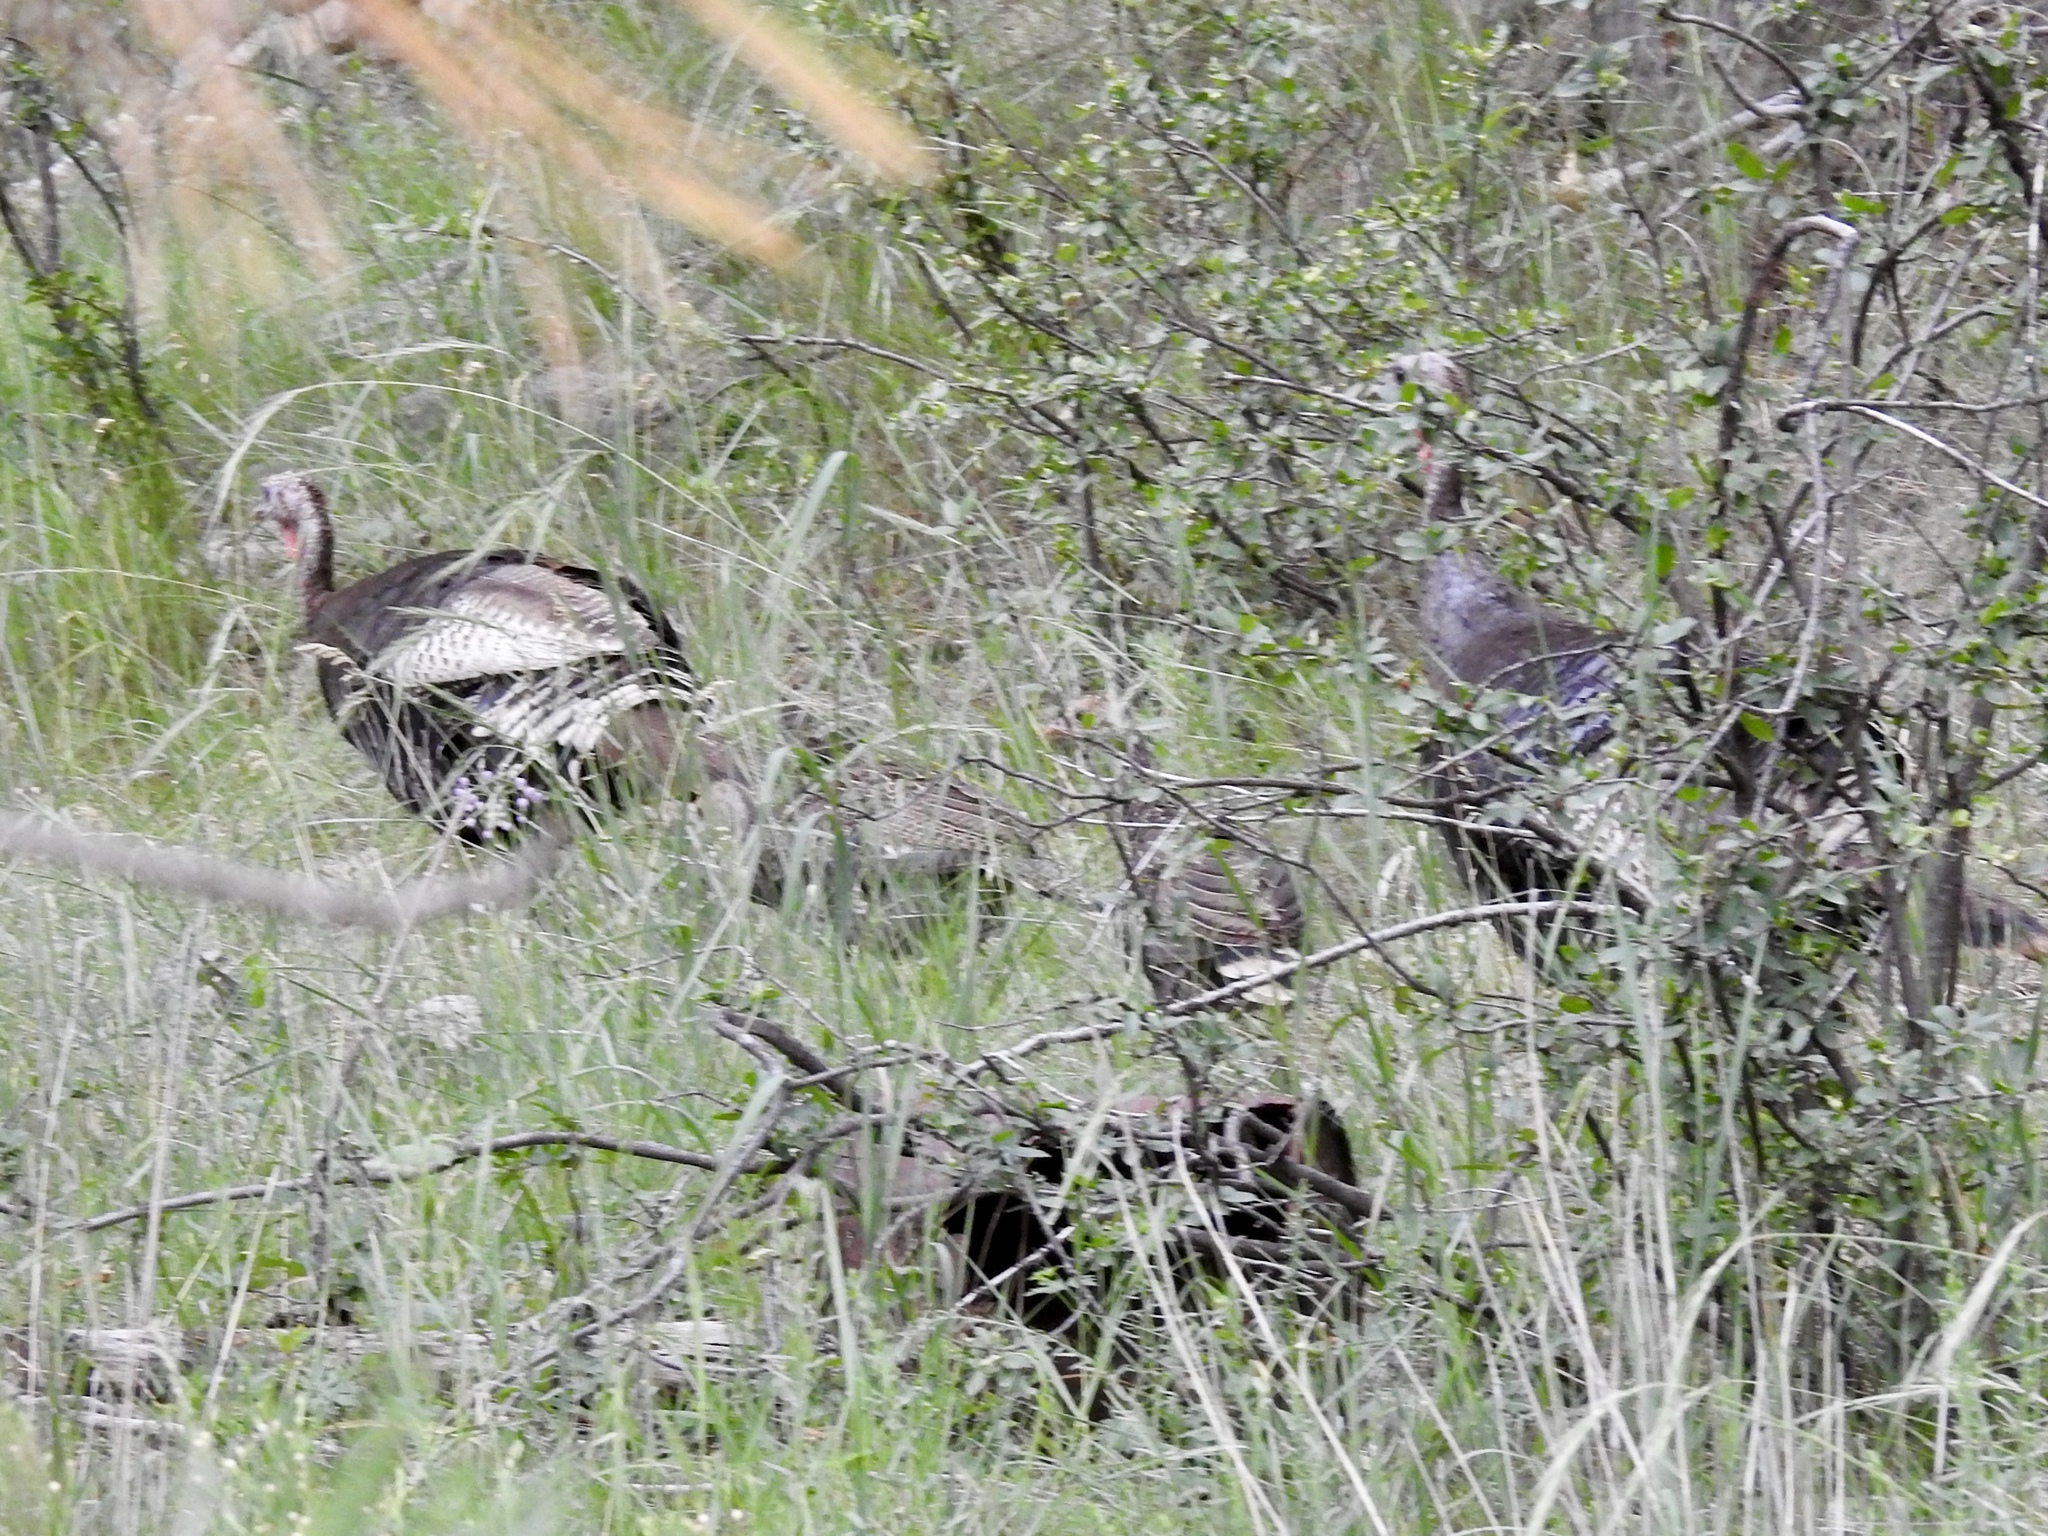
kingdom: Animalia
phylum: Chordata
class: Aves
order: Galliformes
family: Phasianidae
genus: Meleagris
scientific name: Meleagris gallopavo
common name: Wild turkey
